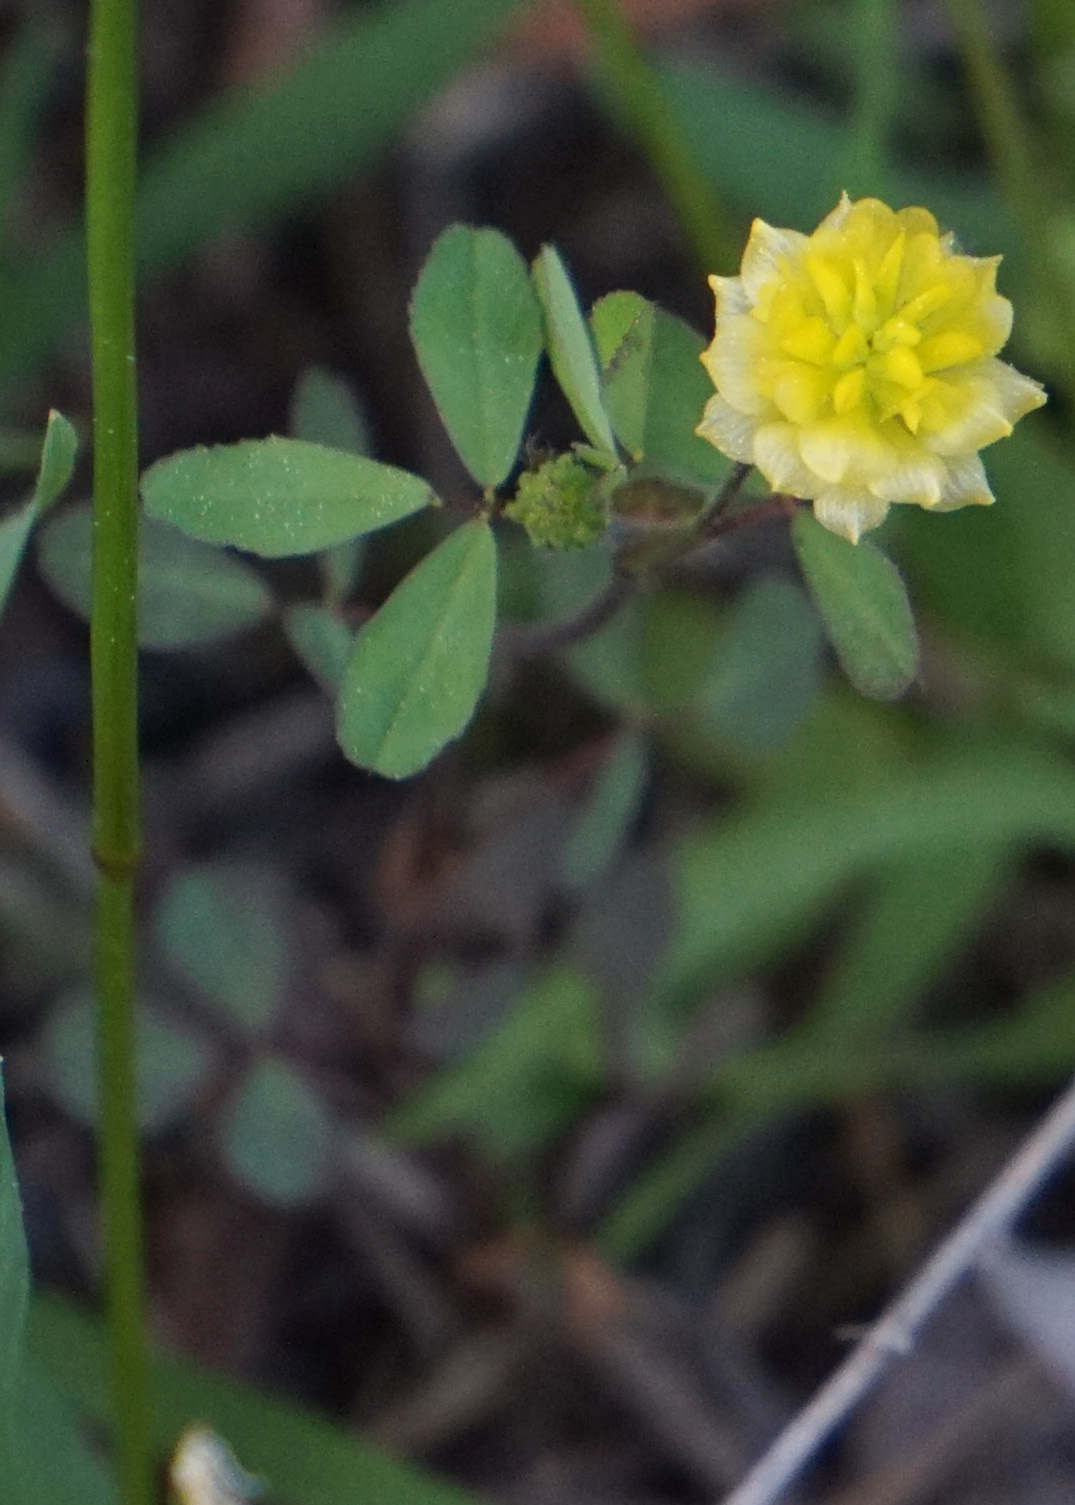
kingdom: Plantae
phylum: Tracheophyta
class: Magnoliopsida
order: Fabales
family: Fabaceae
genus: Trifolium
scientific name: Trifolium campestre
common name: Field clover
